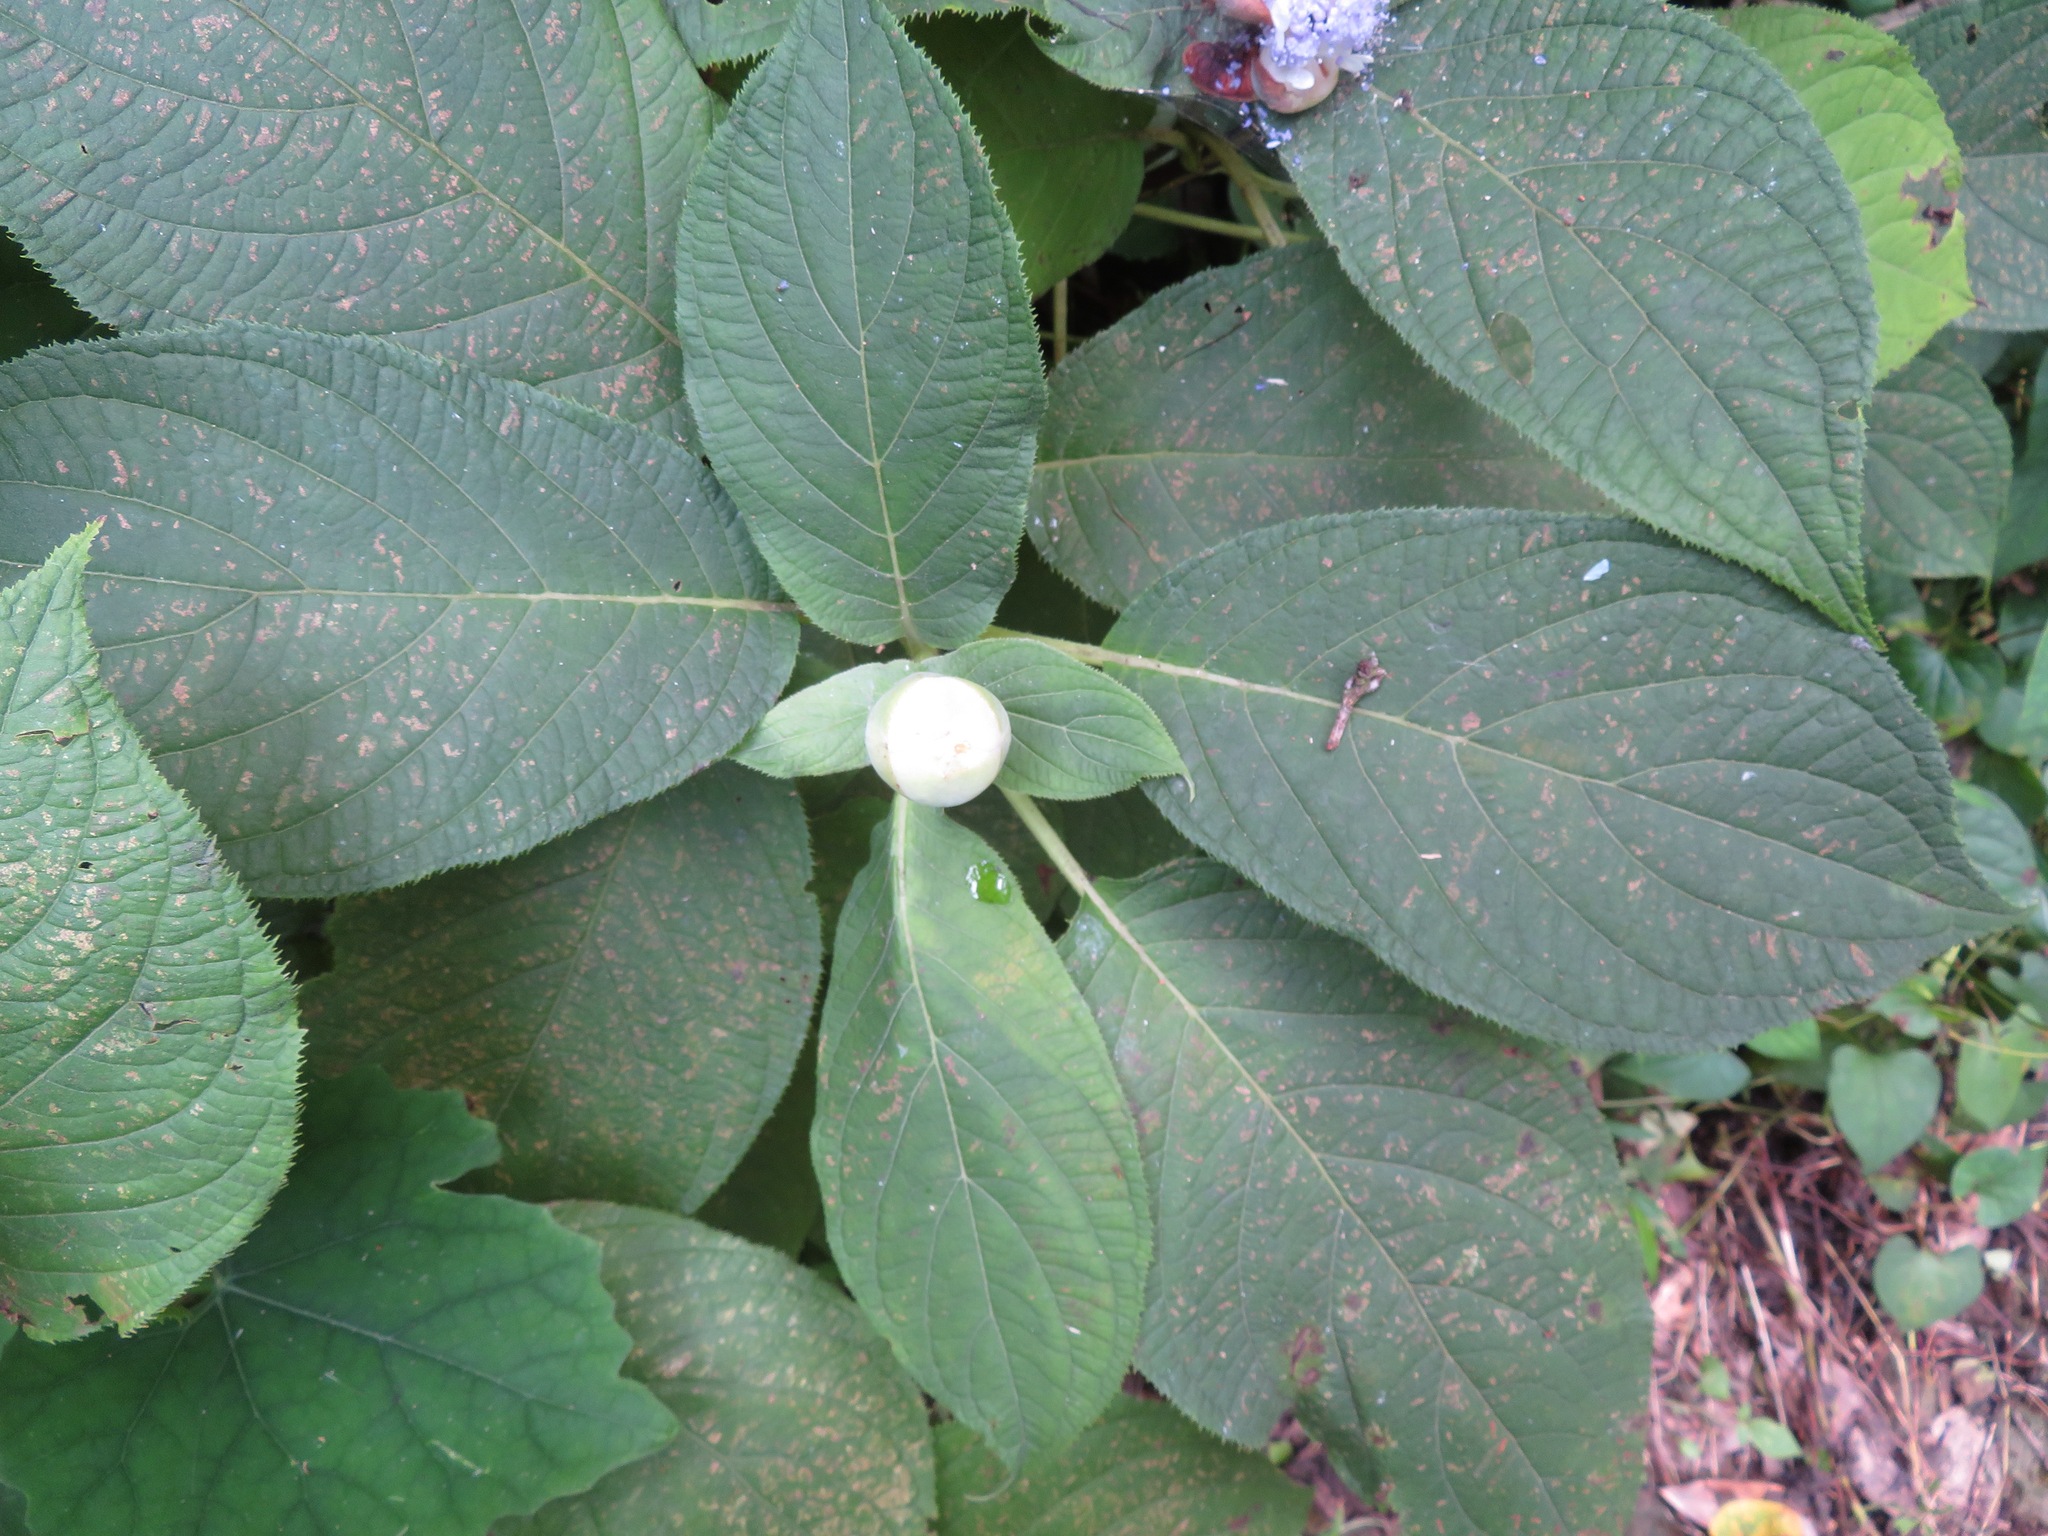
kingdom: Plantae
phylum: Tracheophyta
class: Magnoliopsida
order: Cornales
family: Hydrangeaceae
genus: Hydrangea
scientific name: Hydrangea involucrata
